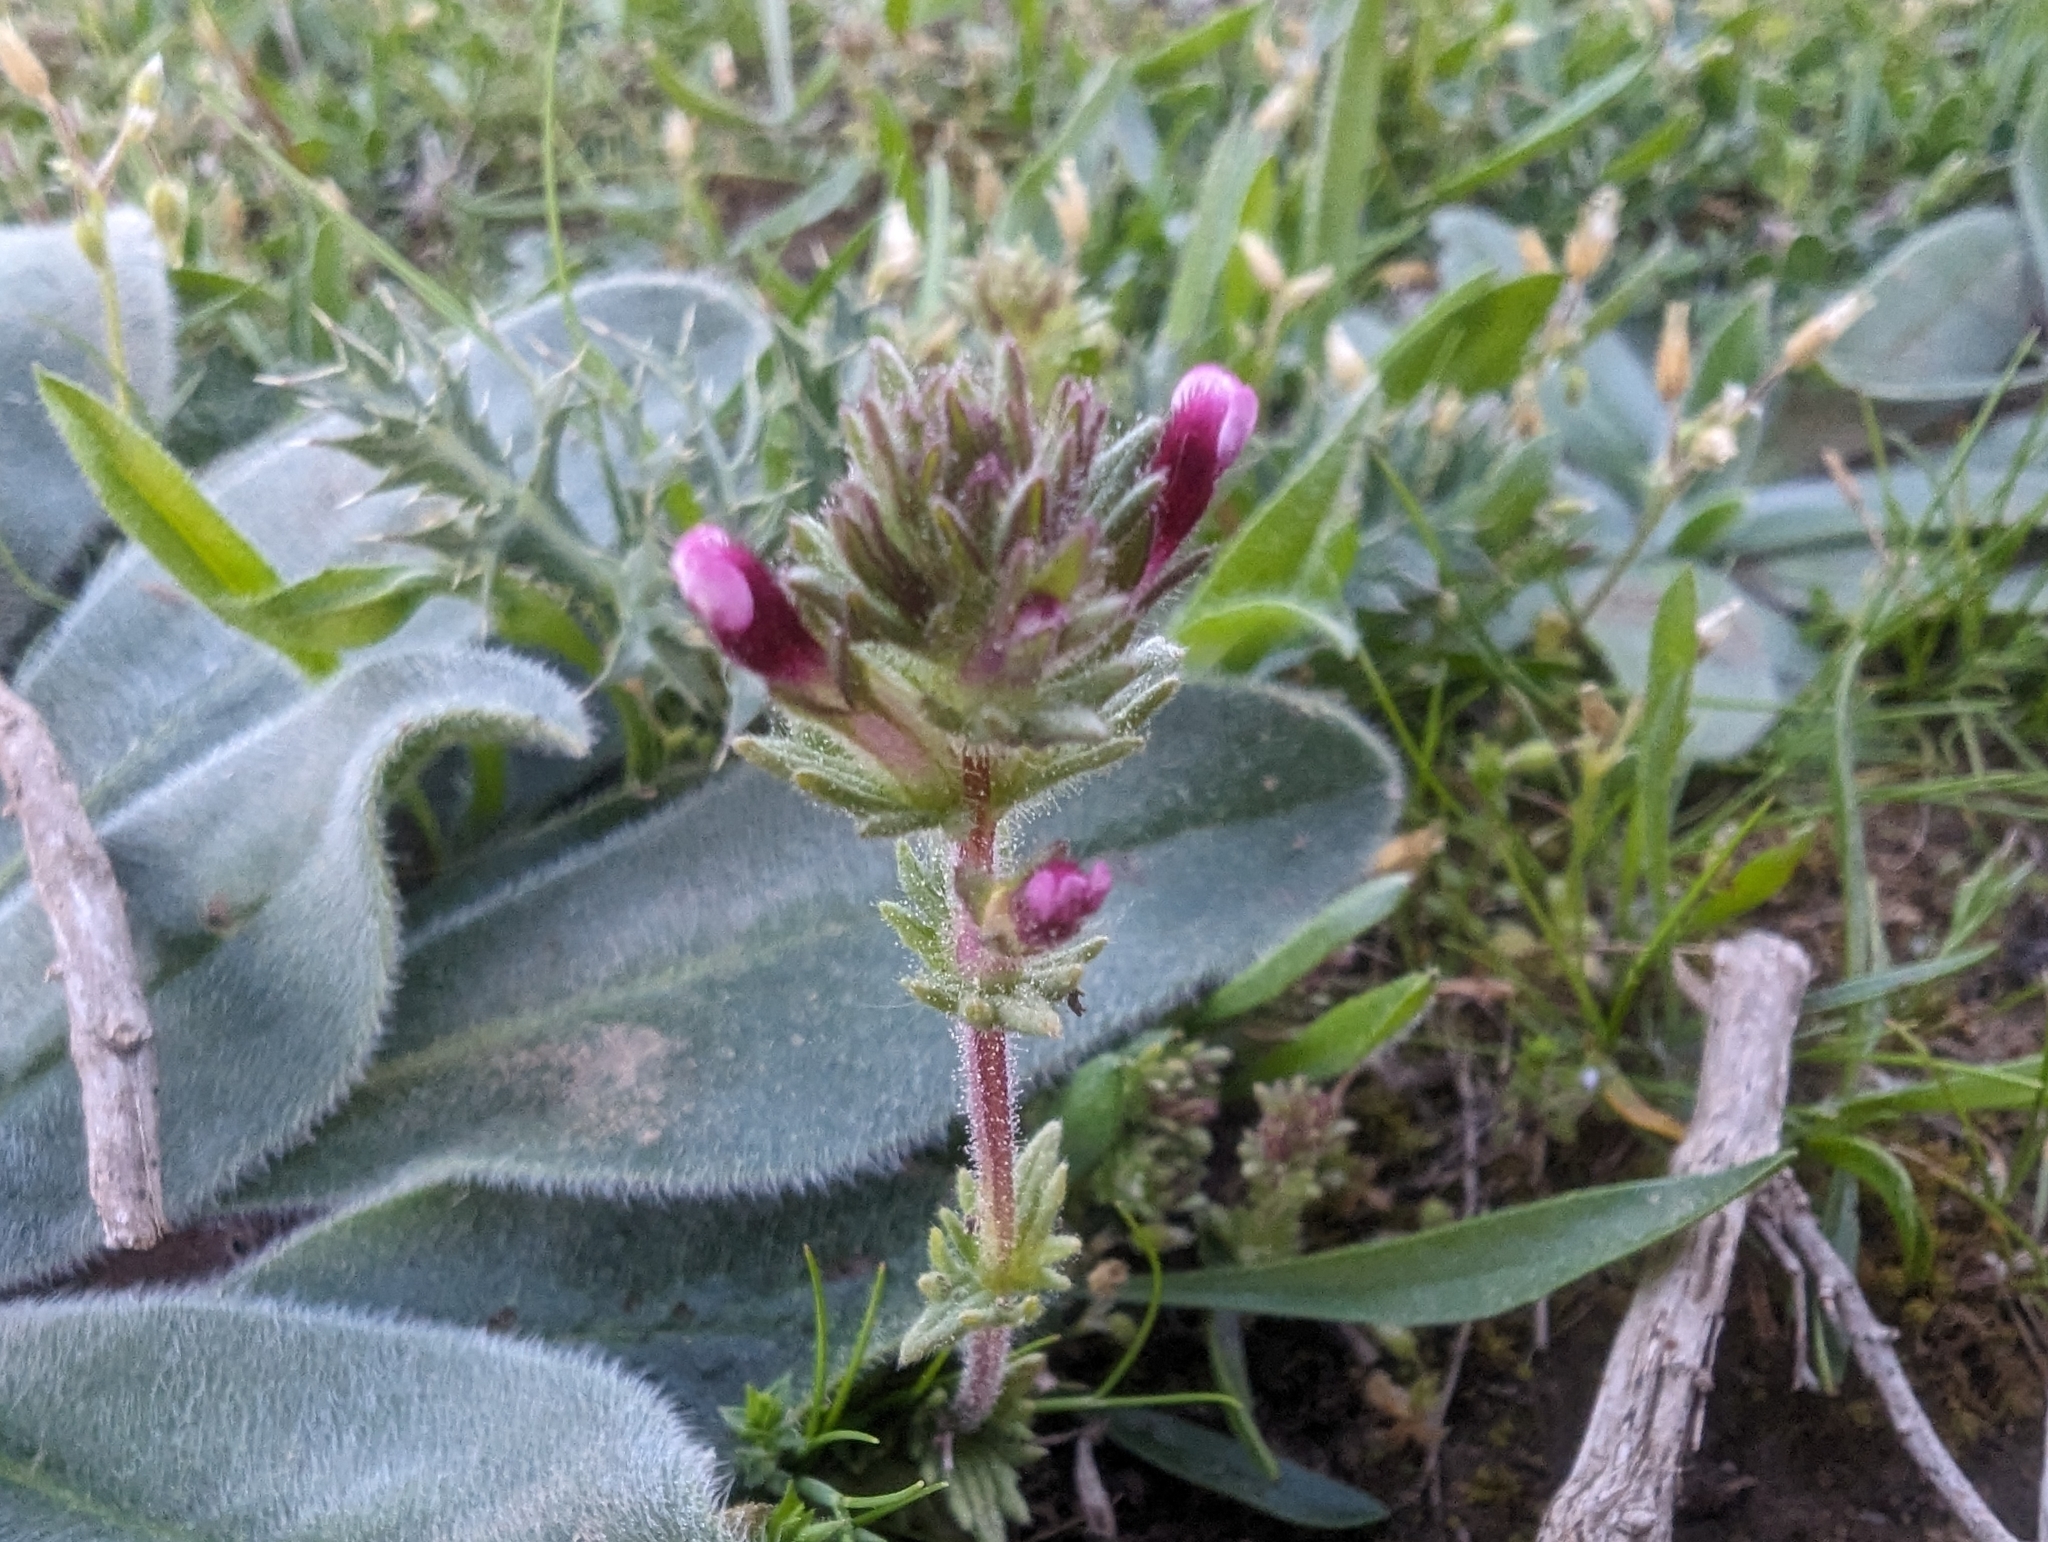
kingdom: Plantae
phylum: Tracheophyta
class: Magnoliopsida
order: Lamiales
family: Orobanchaceae
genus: Parentucellia
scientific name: Parentucellia latifolia
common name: Broadleaf glandweed
